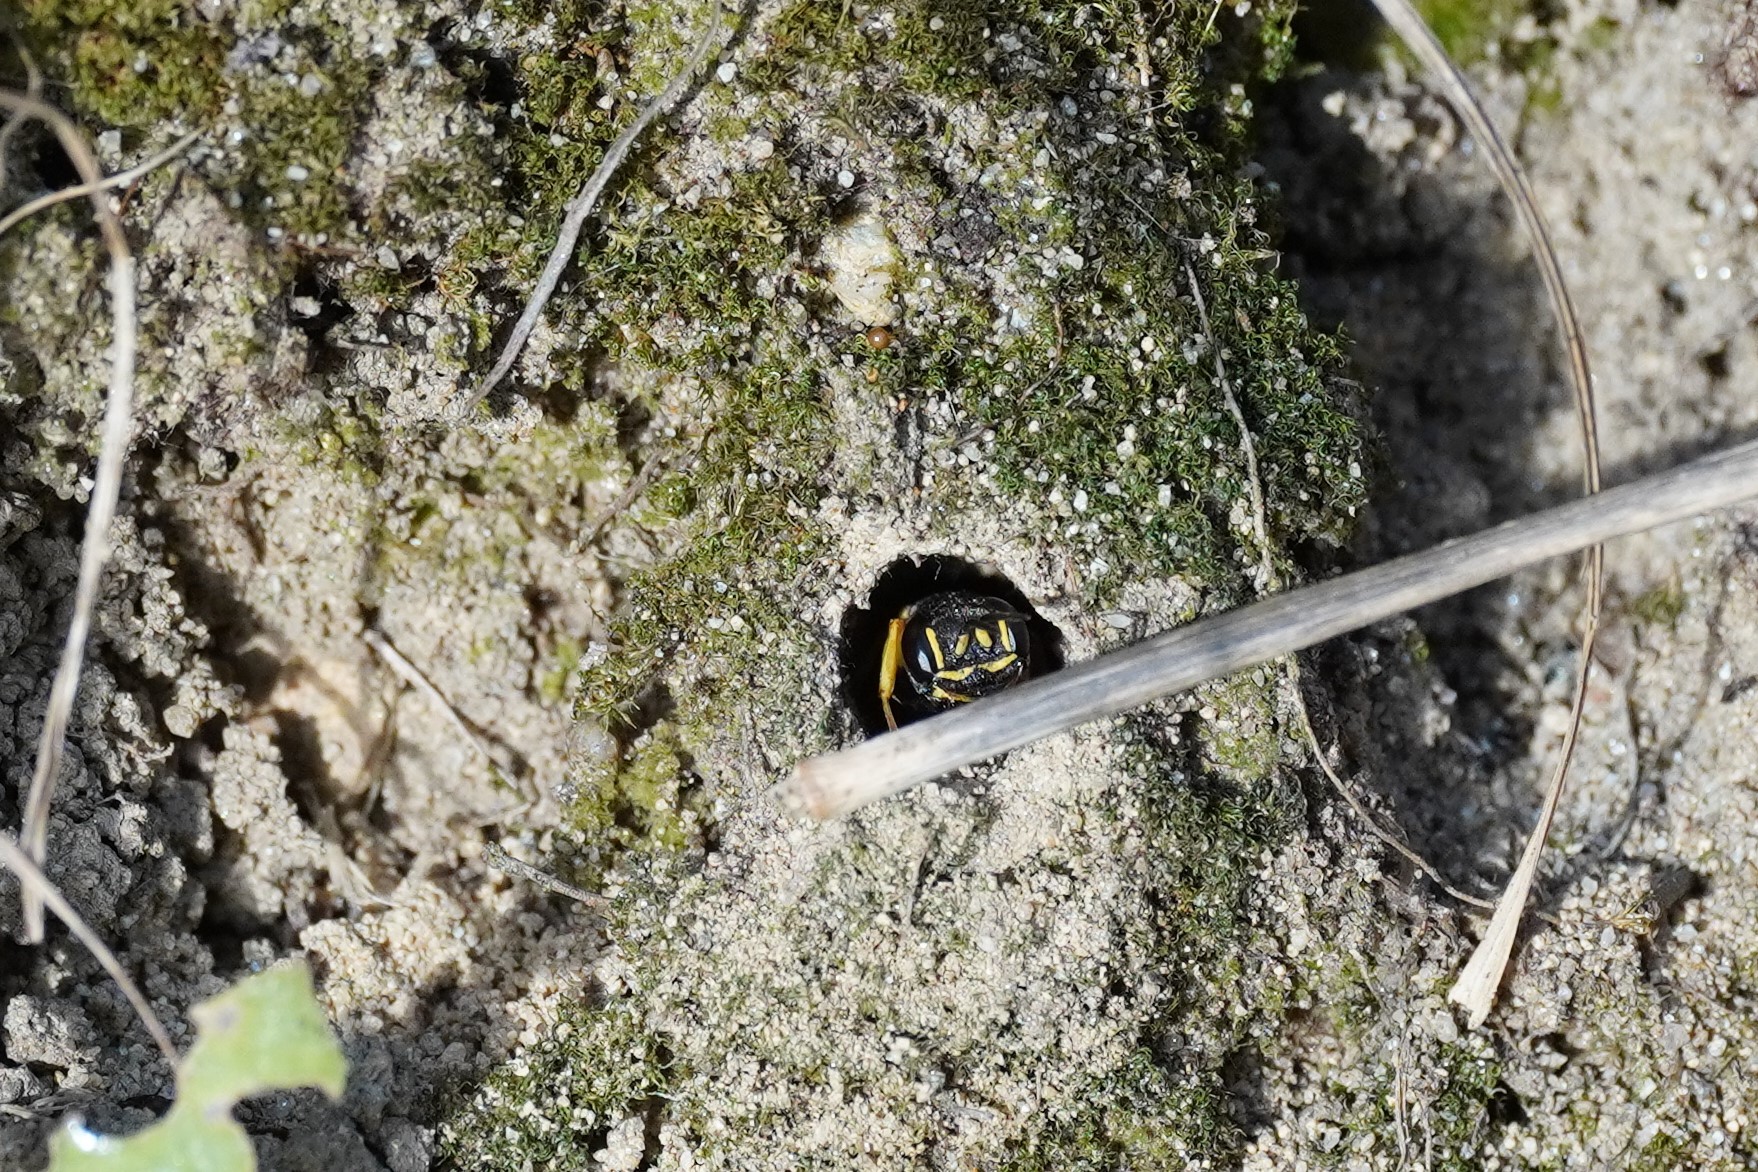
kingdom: Animalia
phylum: Arthropoda
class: Insecta
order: Hymenoptera
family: Crabronidae
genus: Mellinus
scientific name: Mellinus arvensis
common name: Field digger wasp
